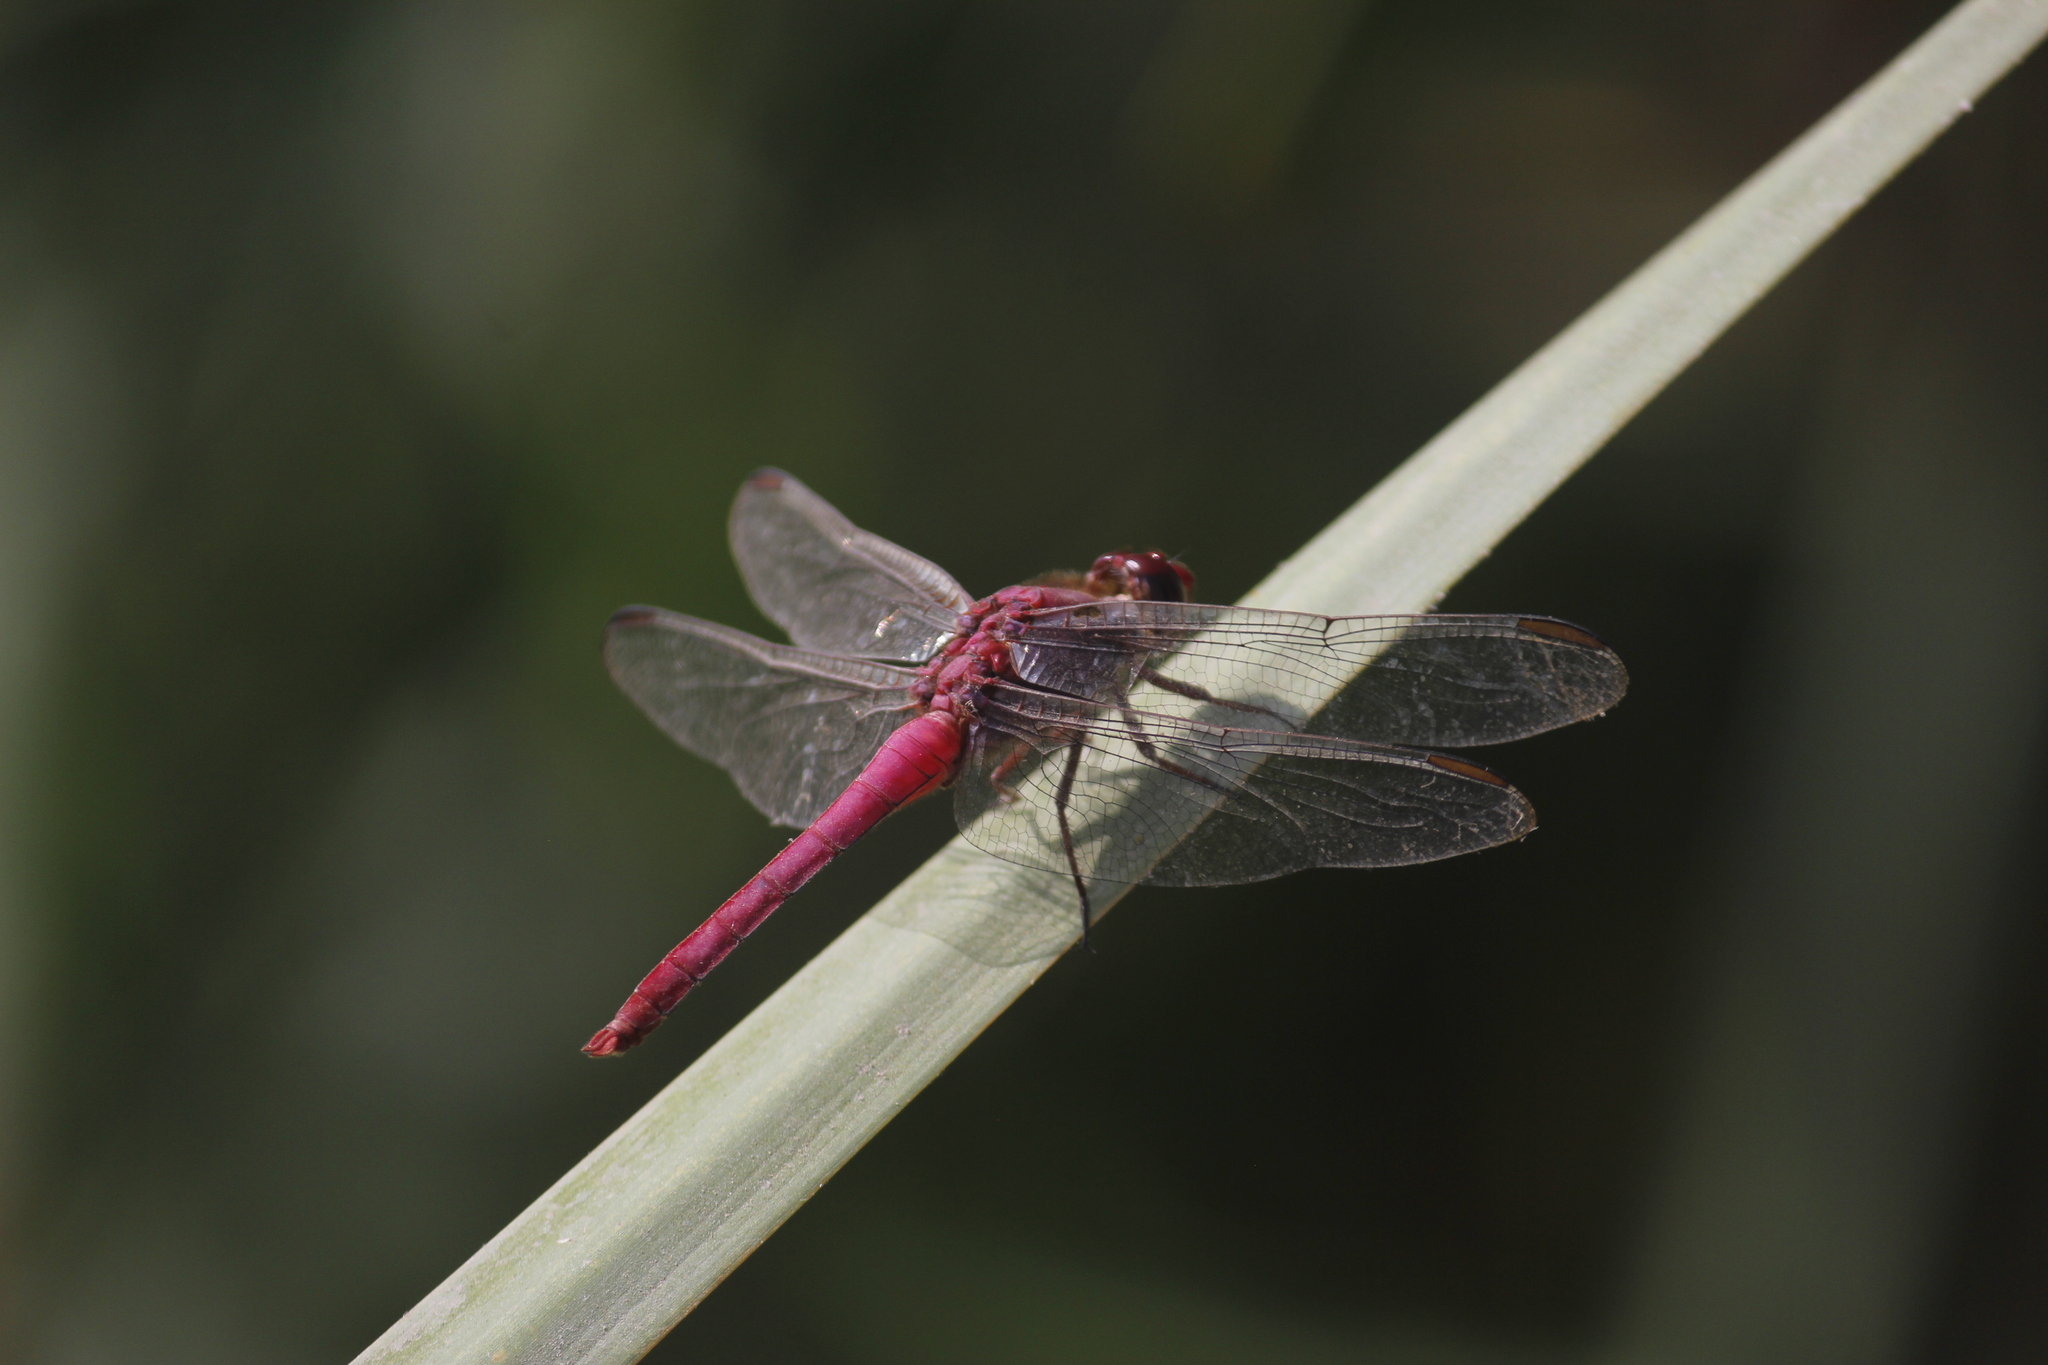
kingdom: Animalia
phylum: Arthropoda
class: Insecta
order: Odonata
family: Libellulidae
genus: Orthemis
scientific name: Orthemis discolor
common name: Carmine skimmer
